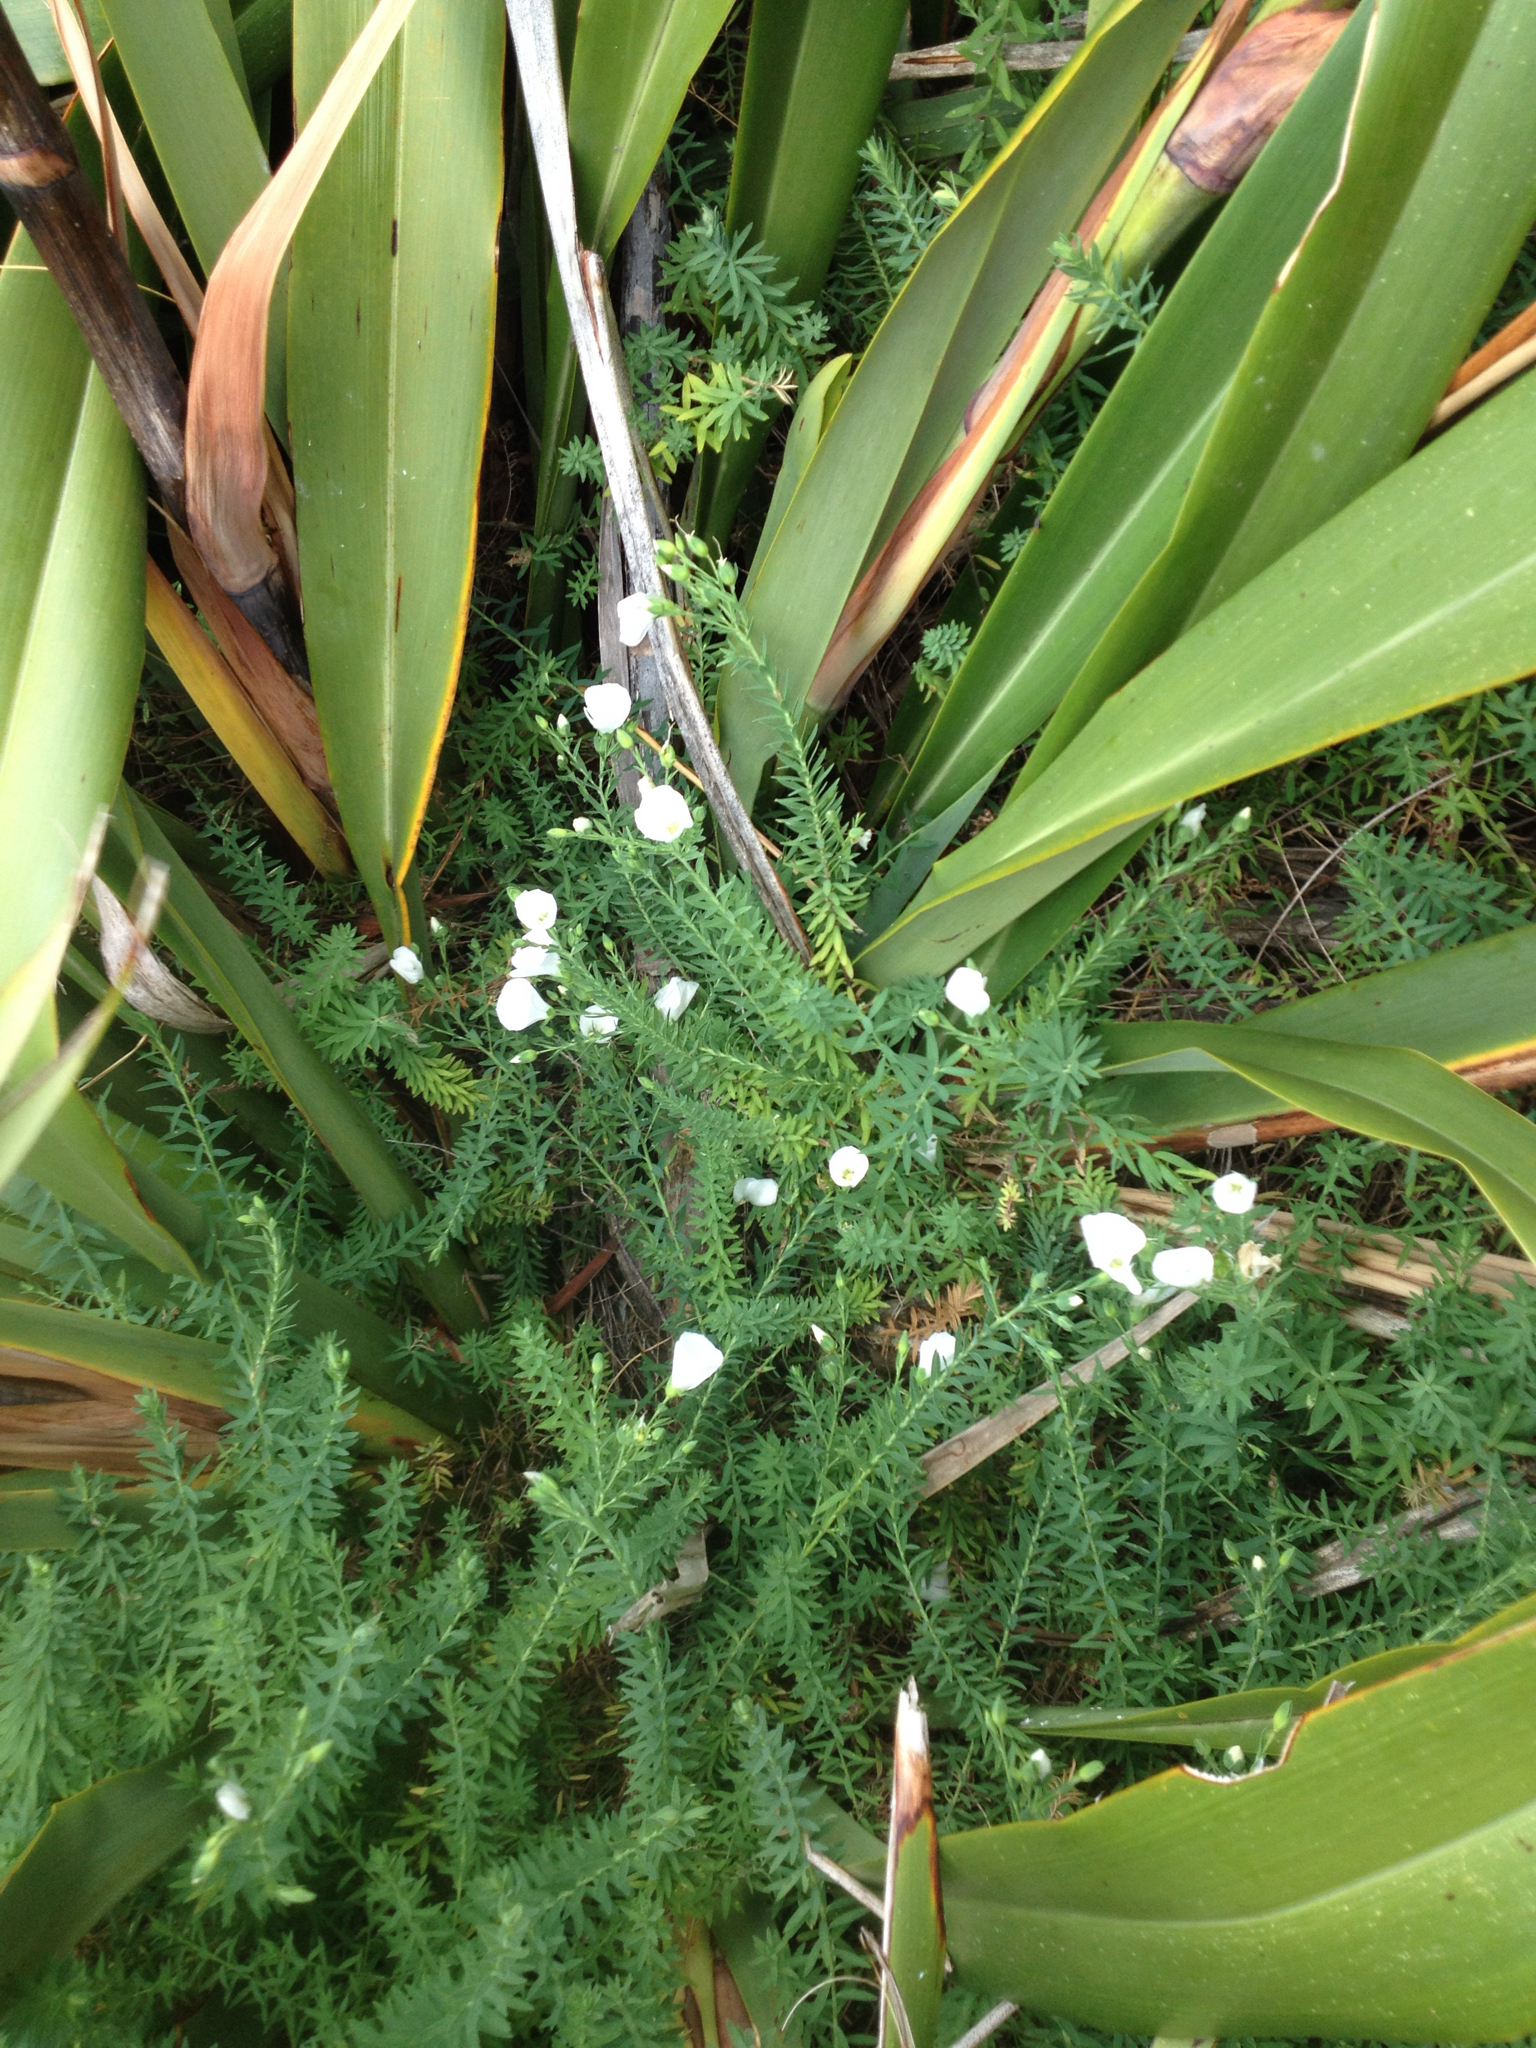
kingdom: Plantae
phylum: Tracheophyta
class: Magnoliopsida
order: Malpighiales
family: Linaceae
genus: Linum
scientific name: Linum monogynum
